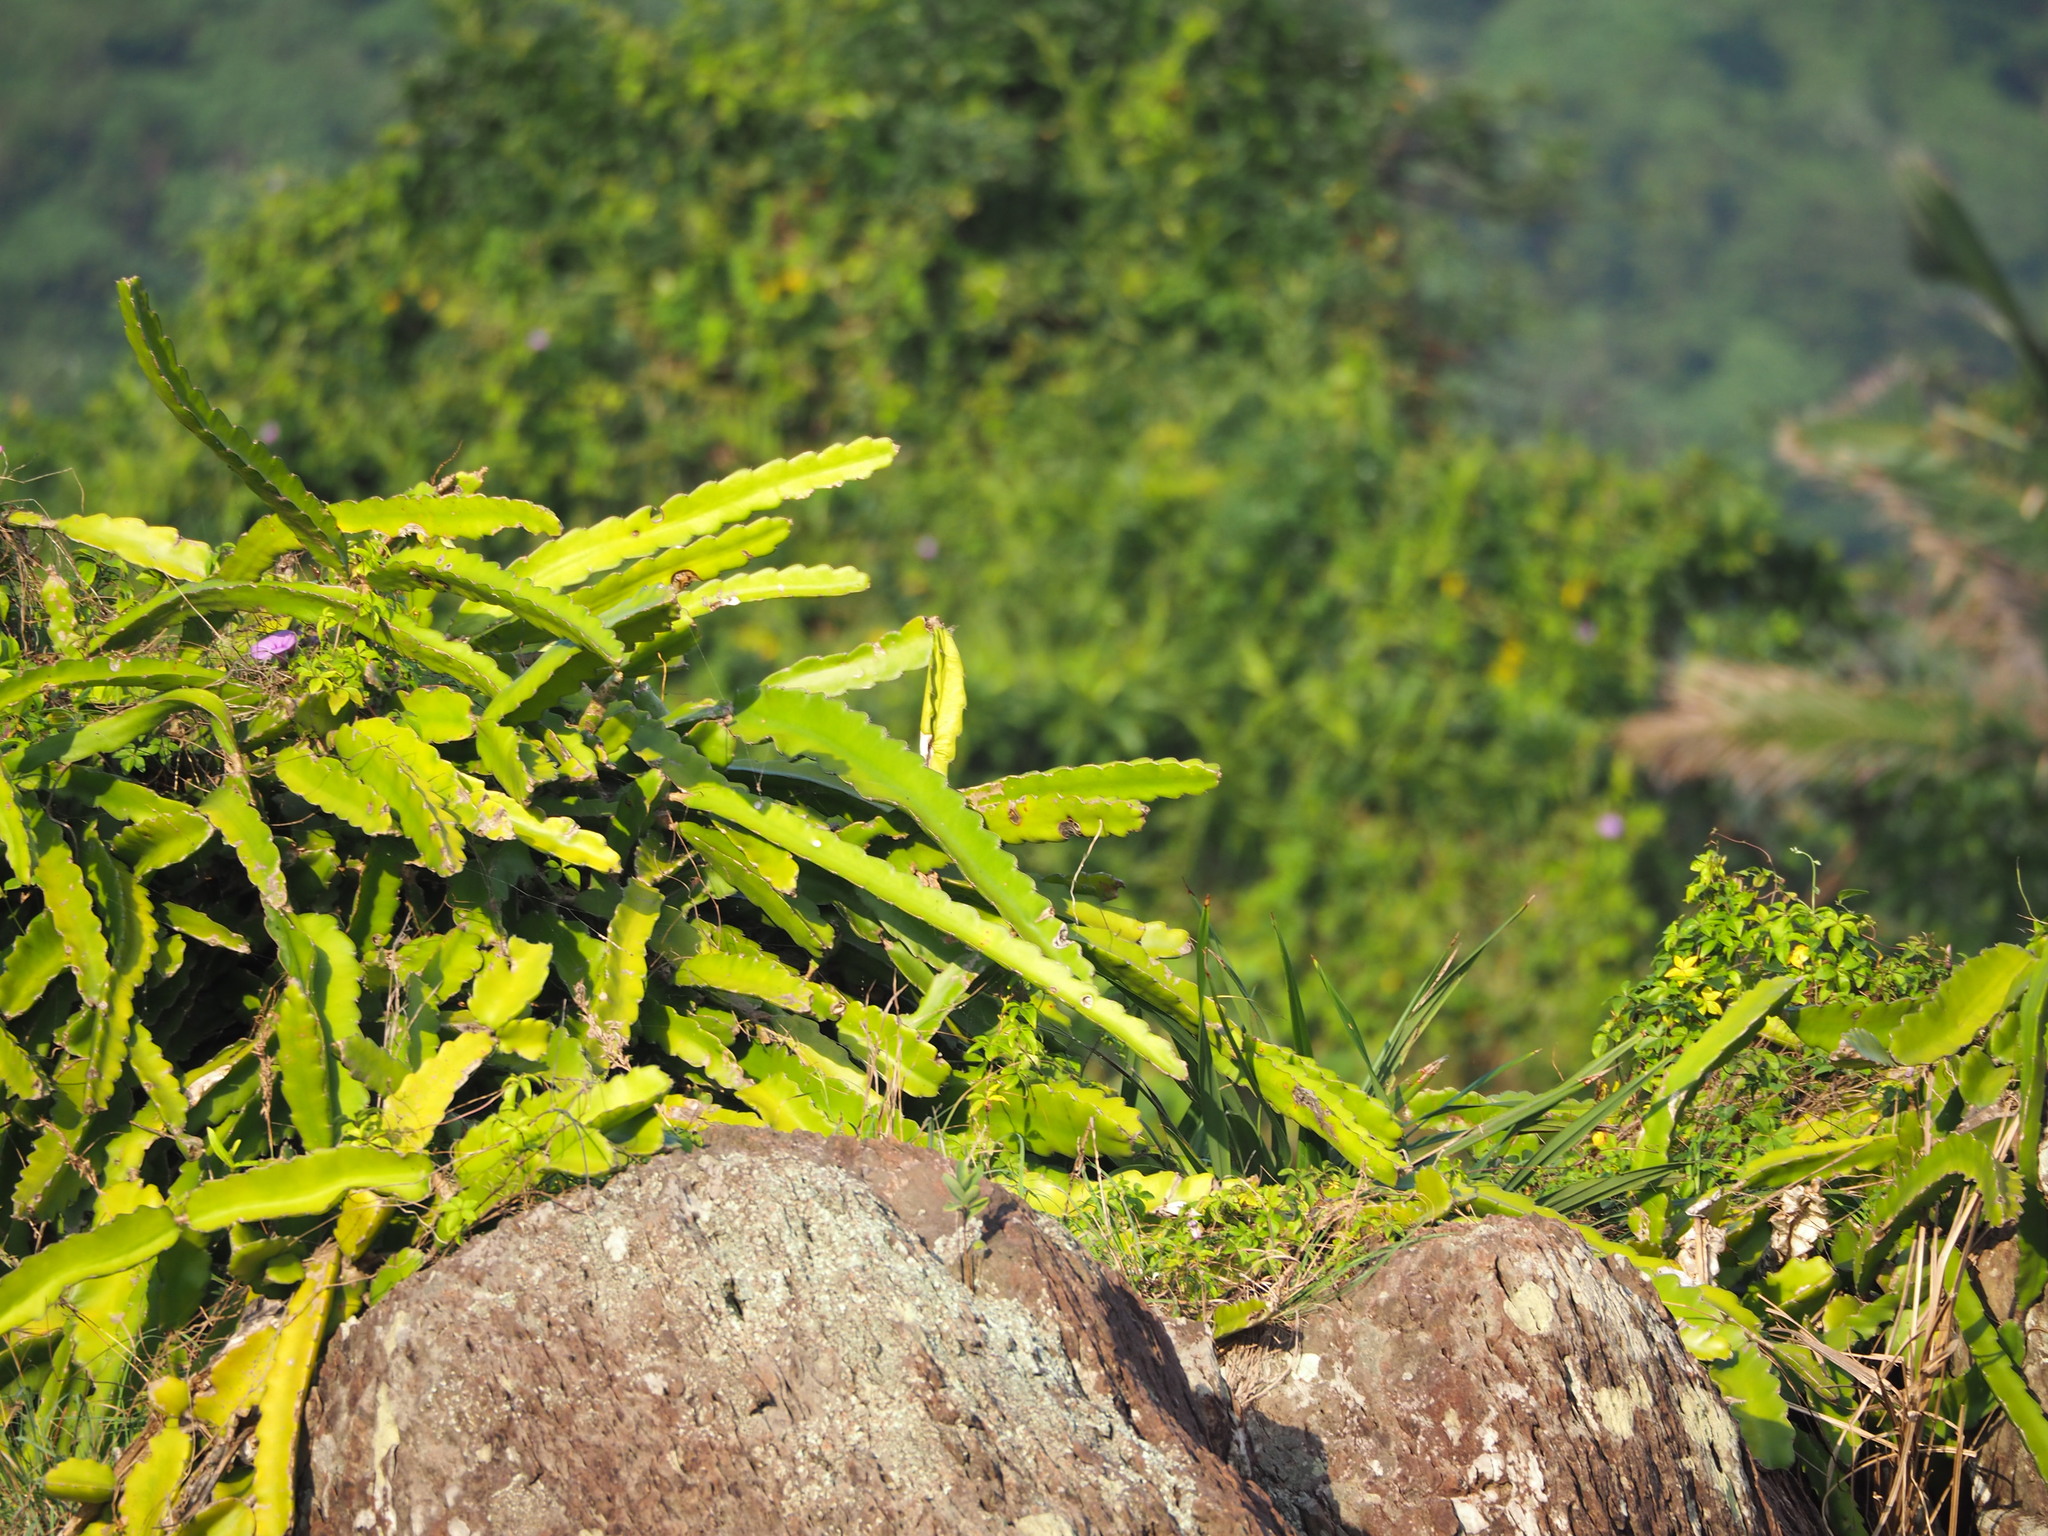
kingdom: Plantae
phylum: Tracheophyta
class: Magnoliopsida
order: Caryophyllales
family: Cactaceae
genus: Selenicereus
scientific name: Selenicereus undatus
